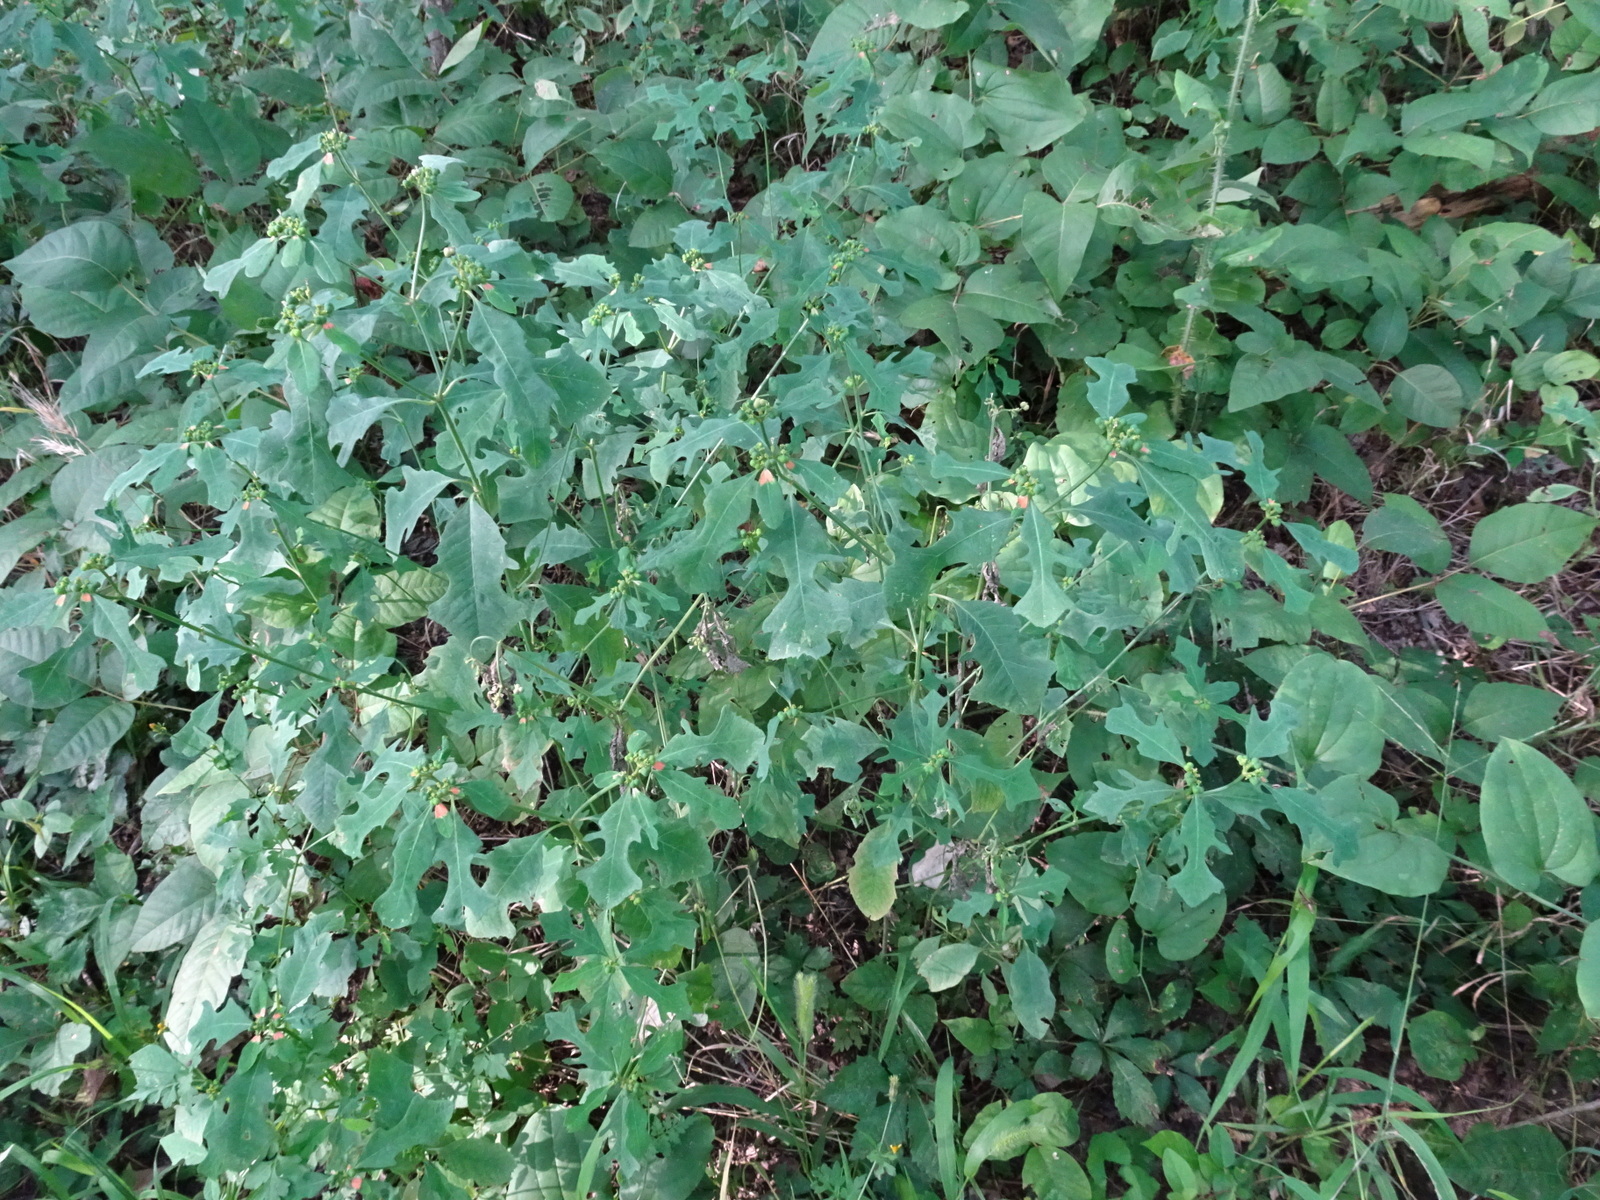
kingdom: Plantae
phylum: Tracheophyta
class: Magnoliopsida
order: Malpighiales
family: Euphorbiaceae
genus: Euphorbia
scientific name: Euphorbia heterophylla
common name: Mexican fireplant
